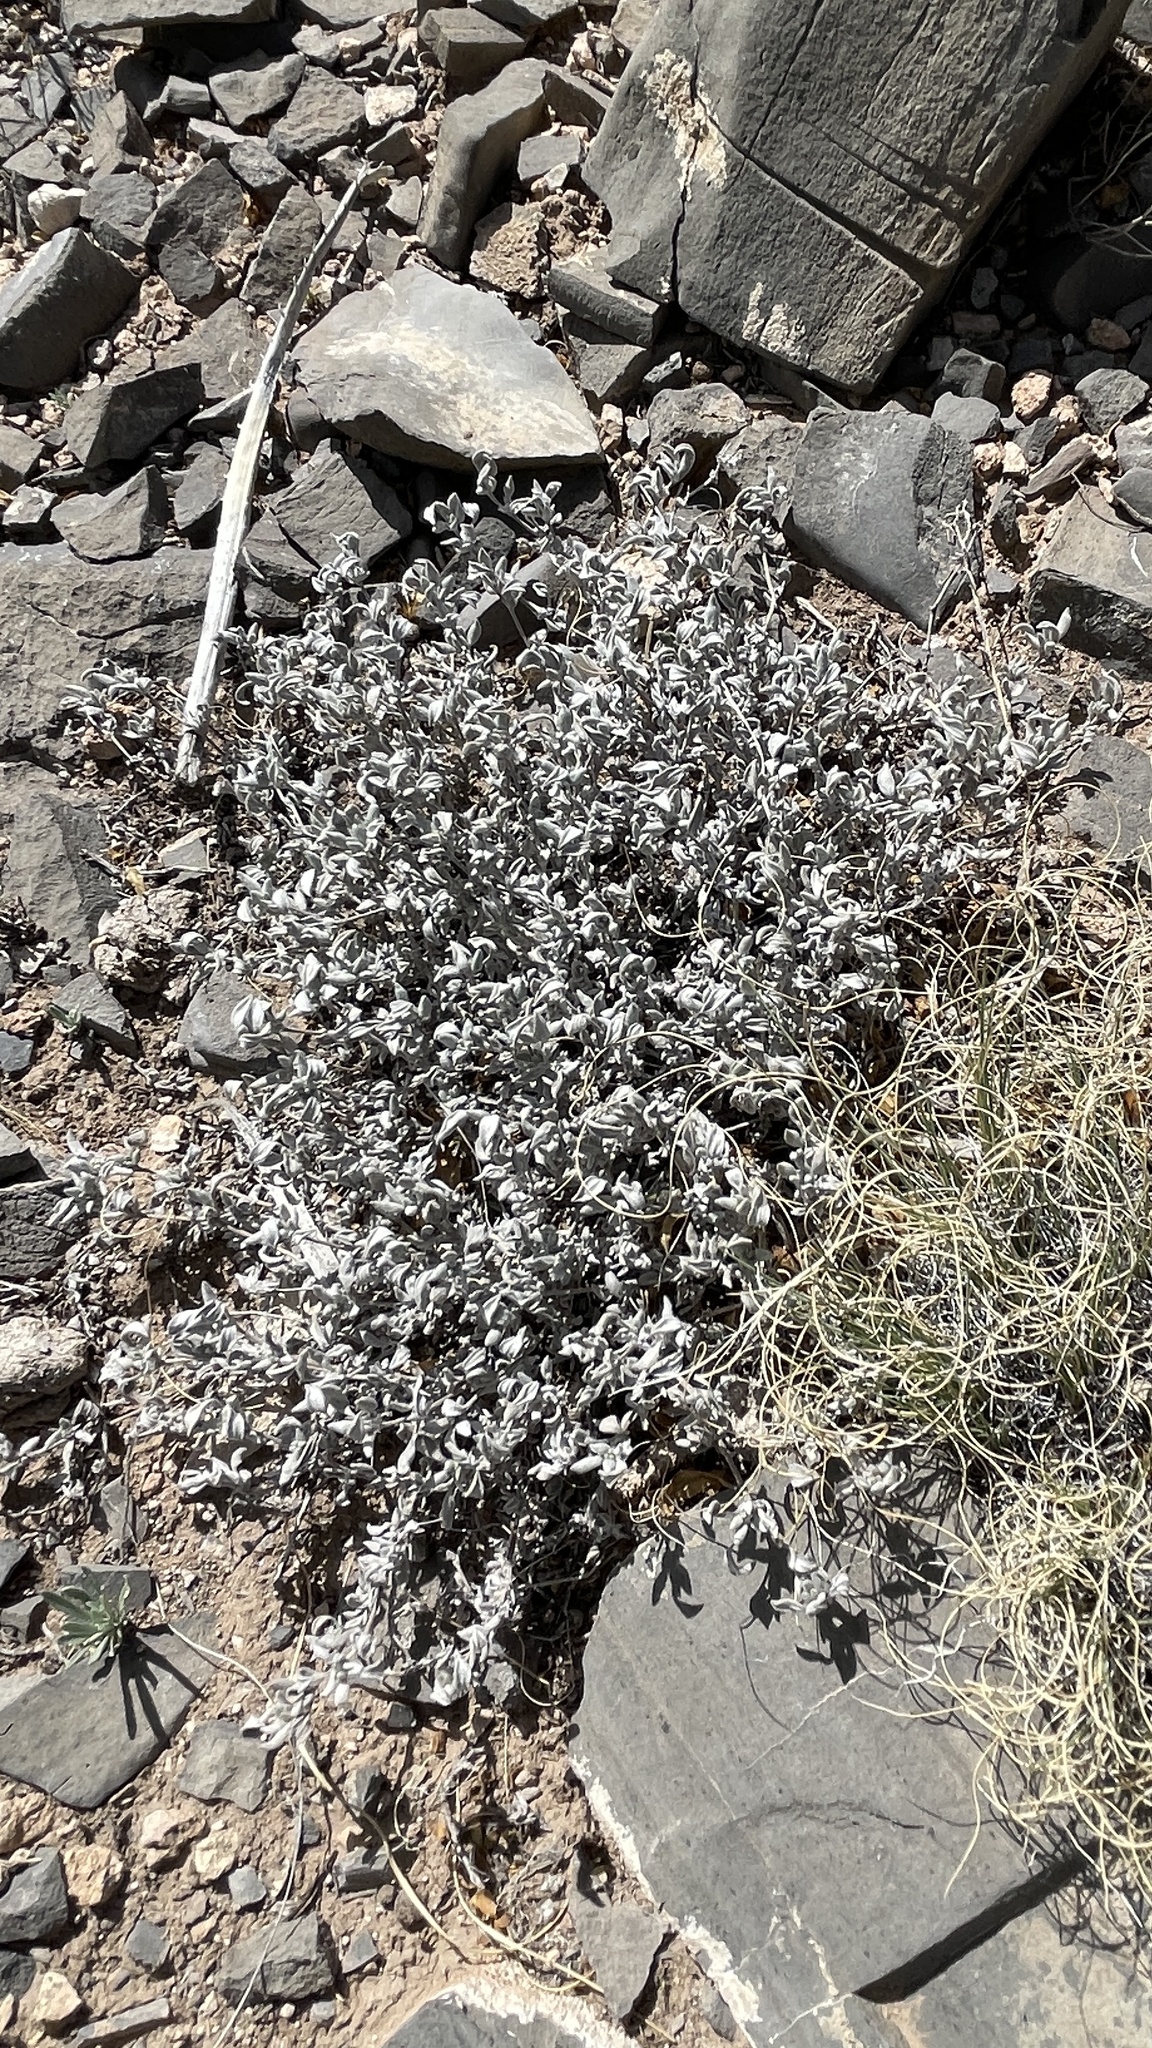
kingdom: Plantae
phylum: Tracheophyta
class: Magnoliopsida
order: Boraginales
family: Ehretiaceae
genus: Tiquilia
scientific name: Tiquilia canescens
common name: Hairy tiquilia
